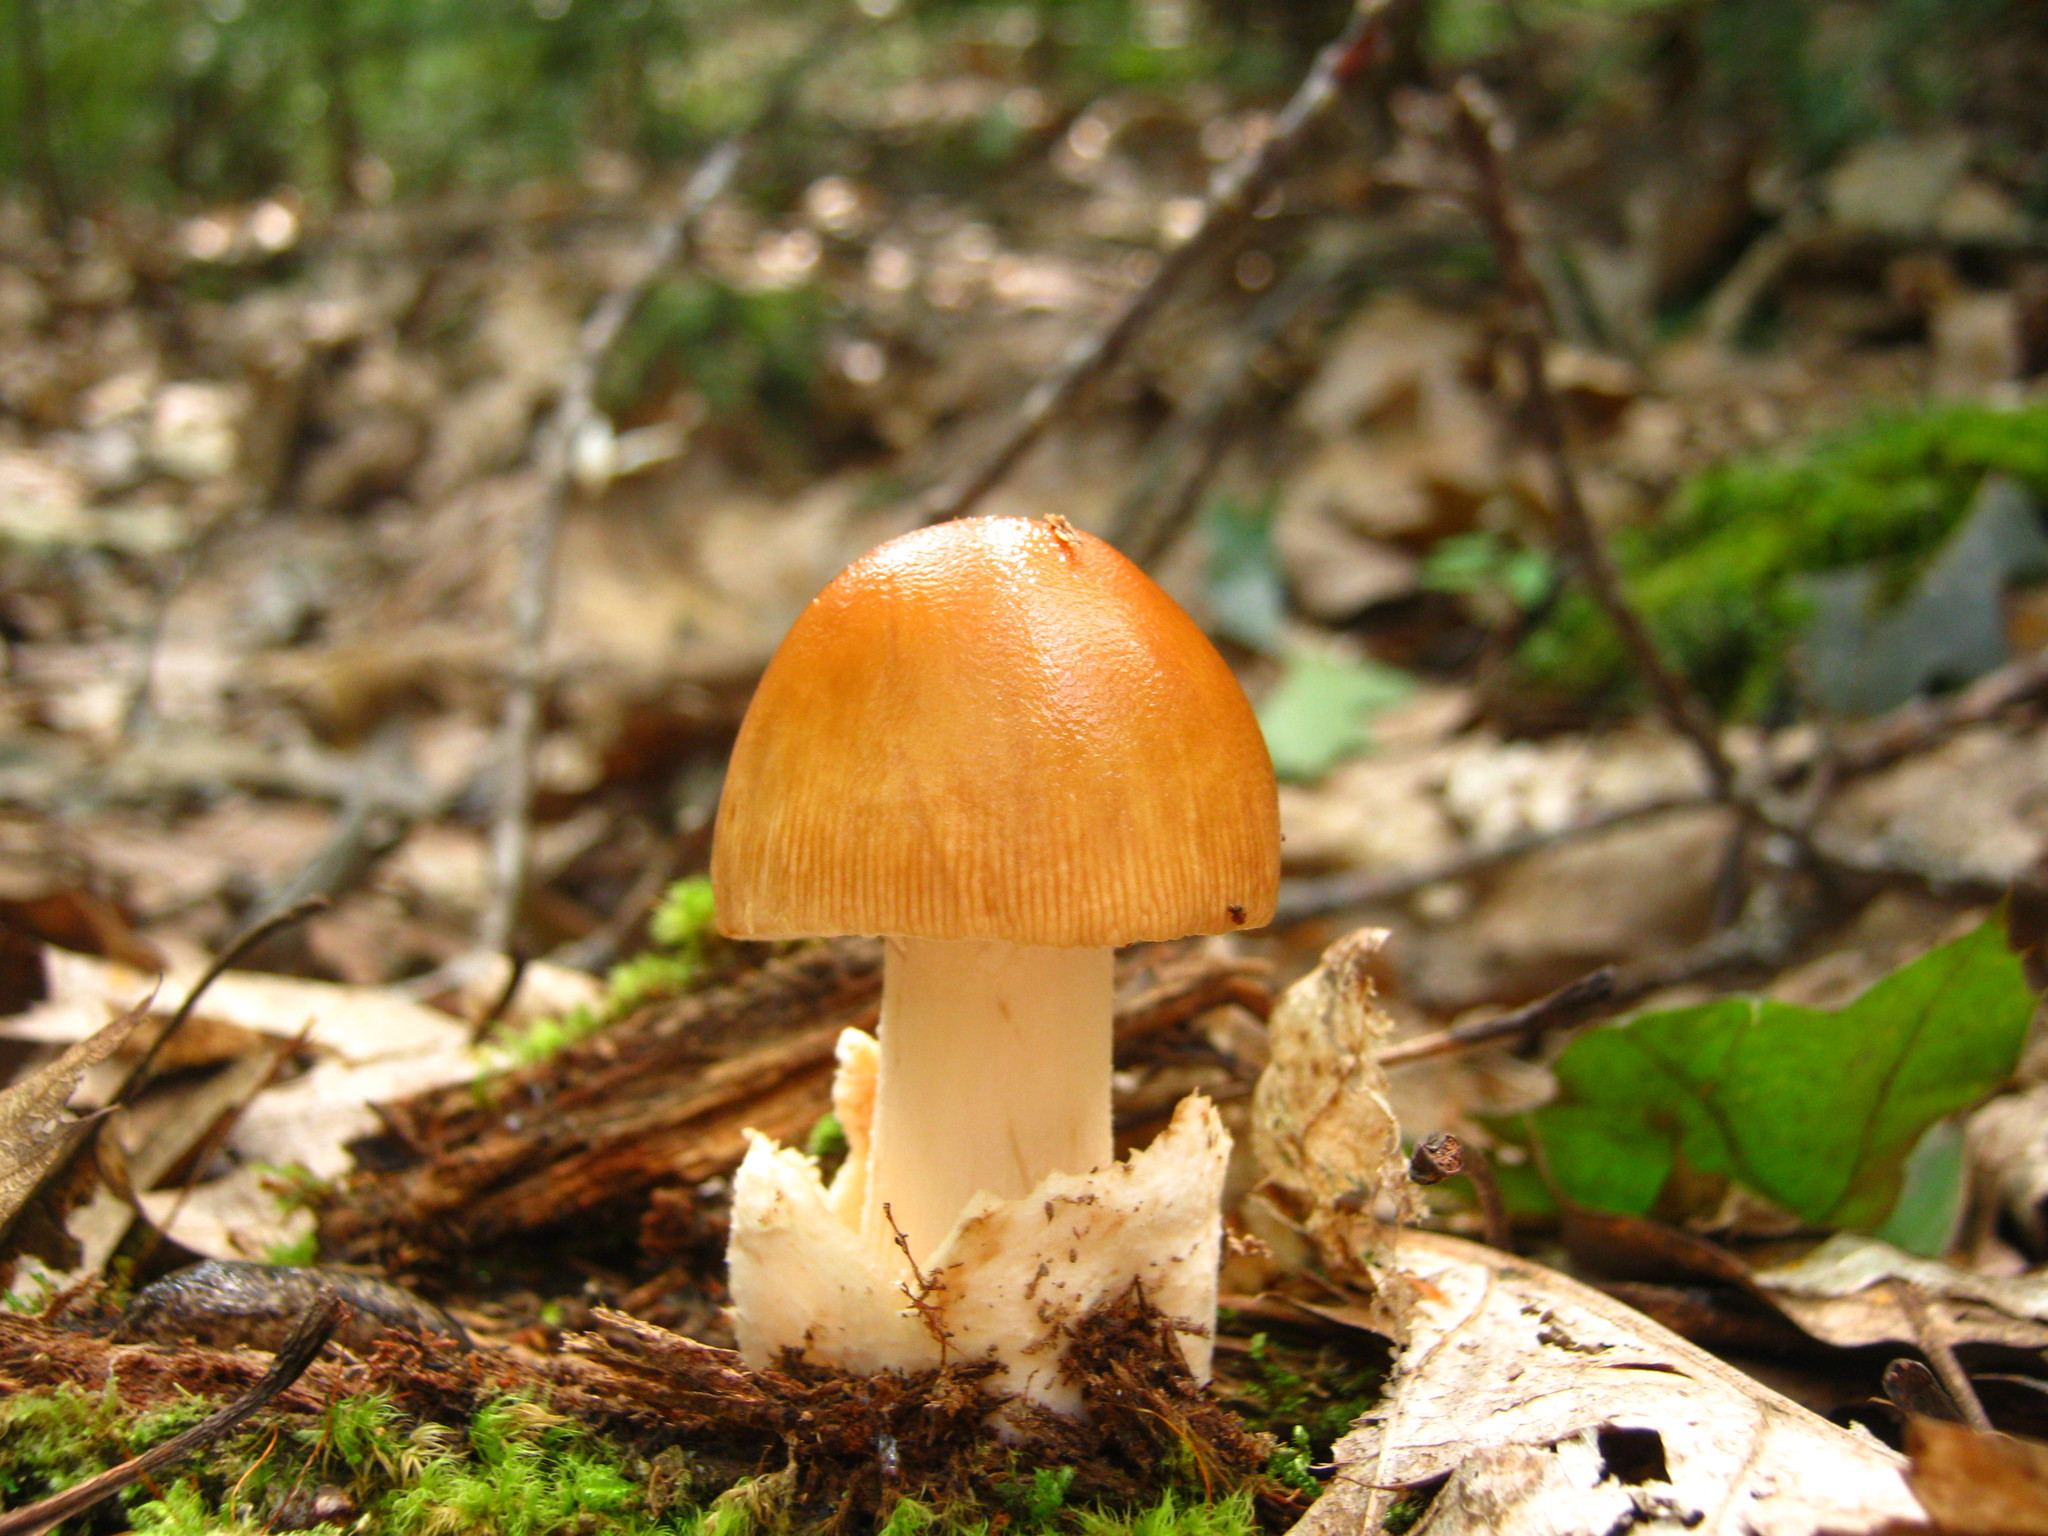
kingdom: Fungi
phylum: Basidiomycota
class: Agaricomycetes
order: Agaricales
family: Amanitaceae
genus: Amanita
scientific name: Amanita fulva
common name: Tawny grisette
